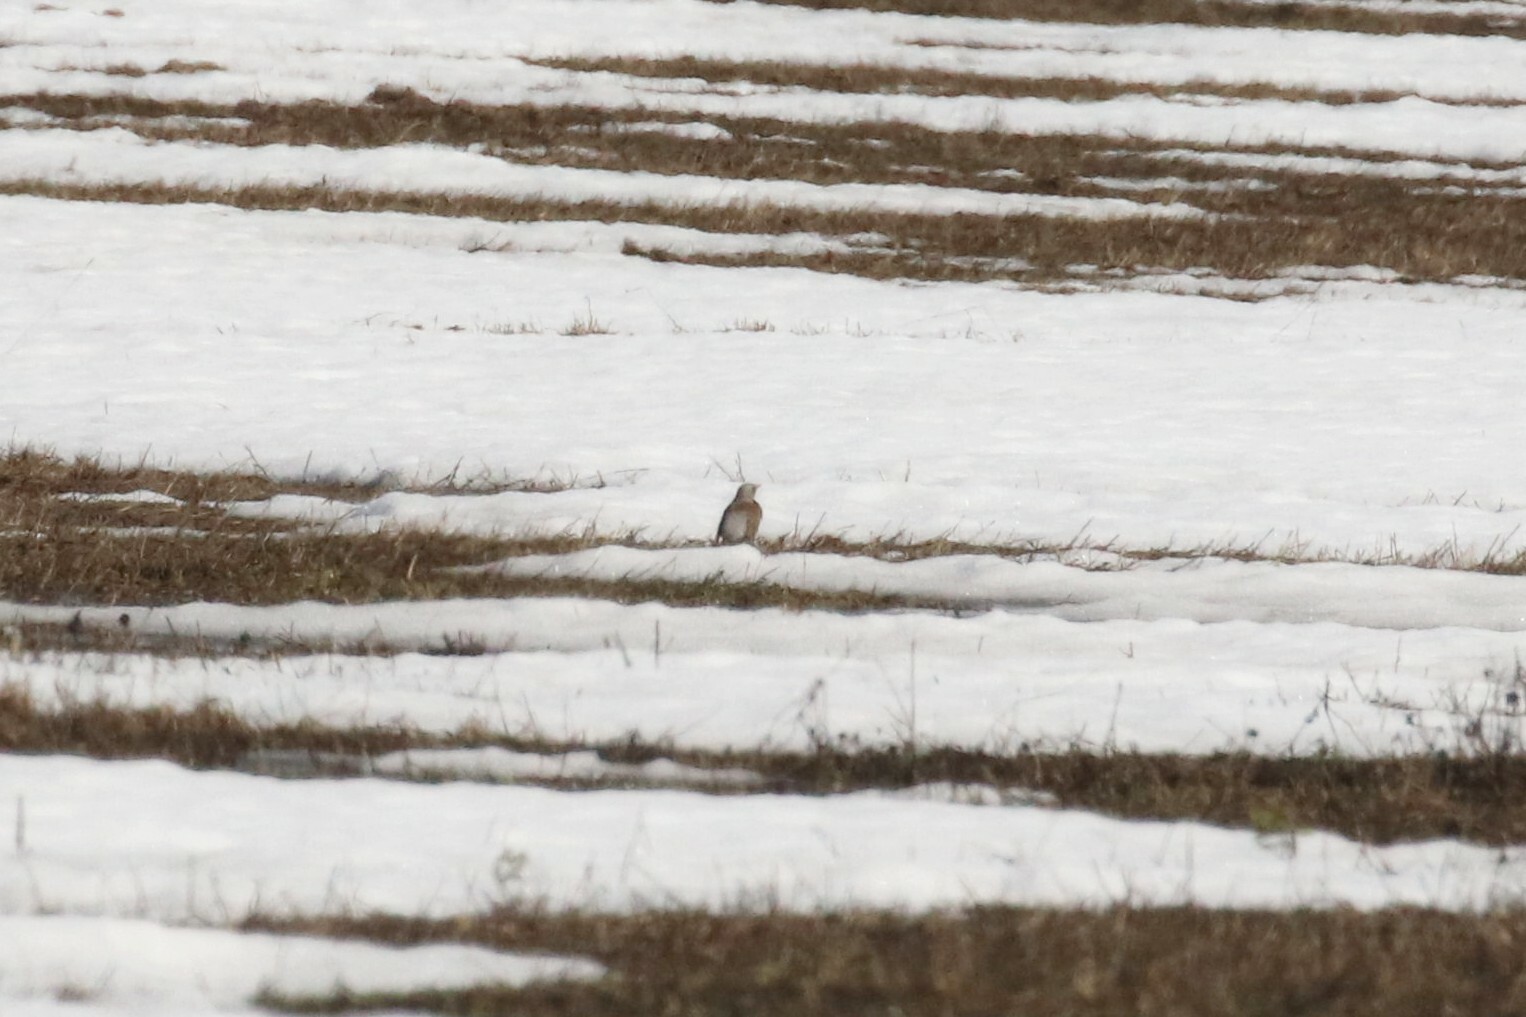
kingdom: Animalia
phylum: Chordata
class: Aves
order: Passeriformes
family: Turdidae
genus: Turdus
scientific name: Turdus pilaris
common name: Fieldfare
